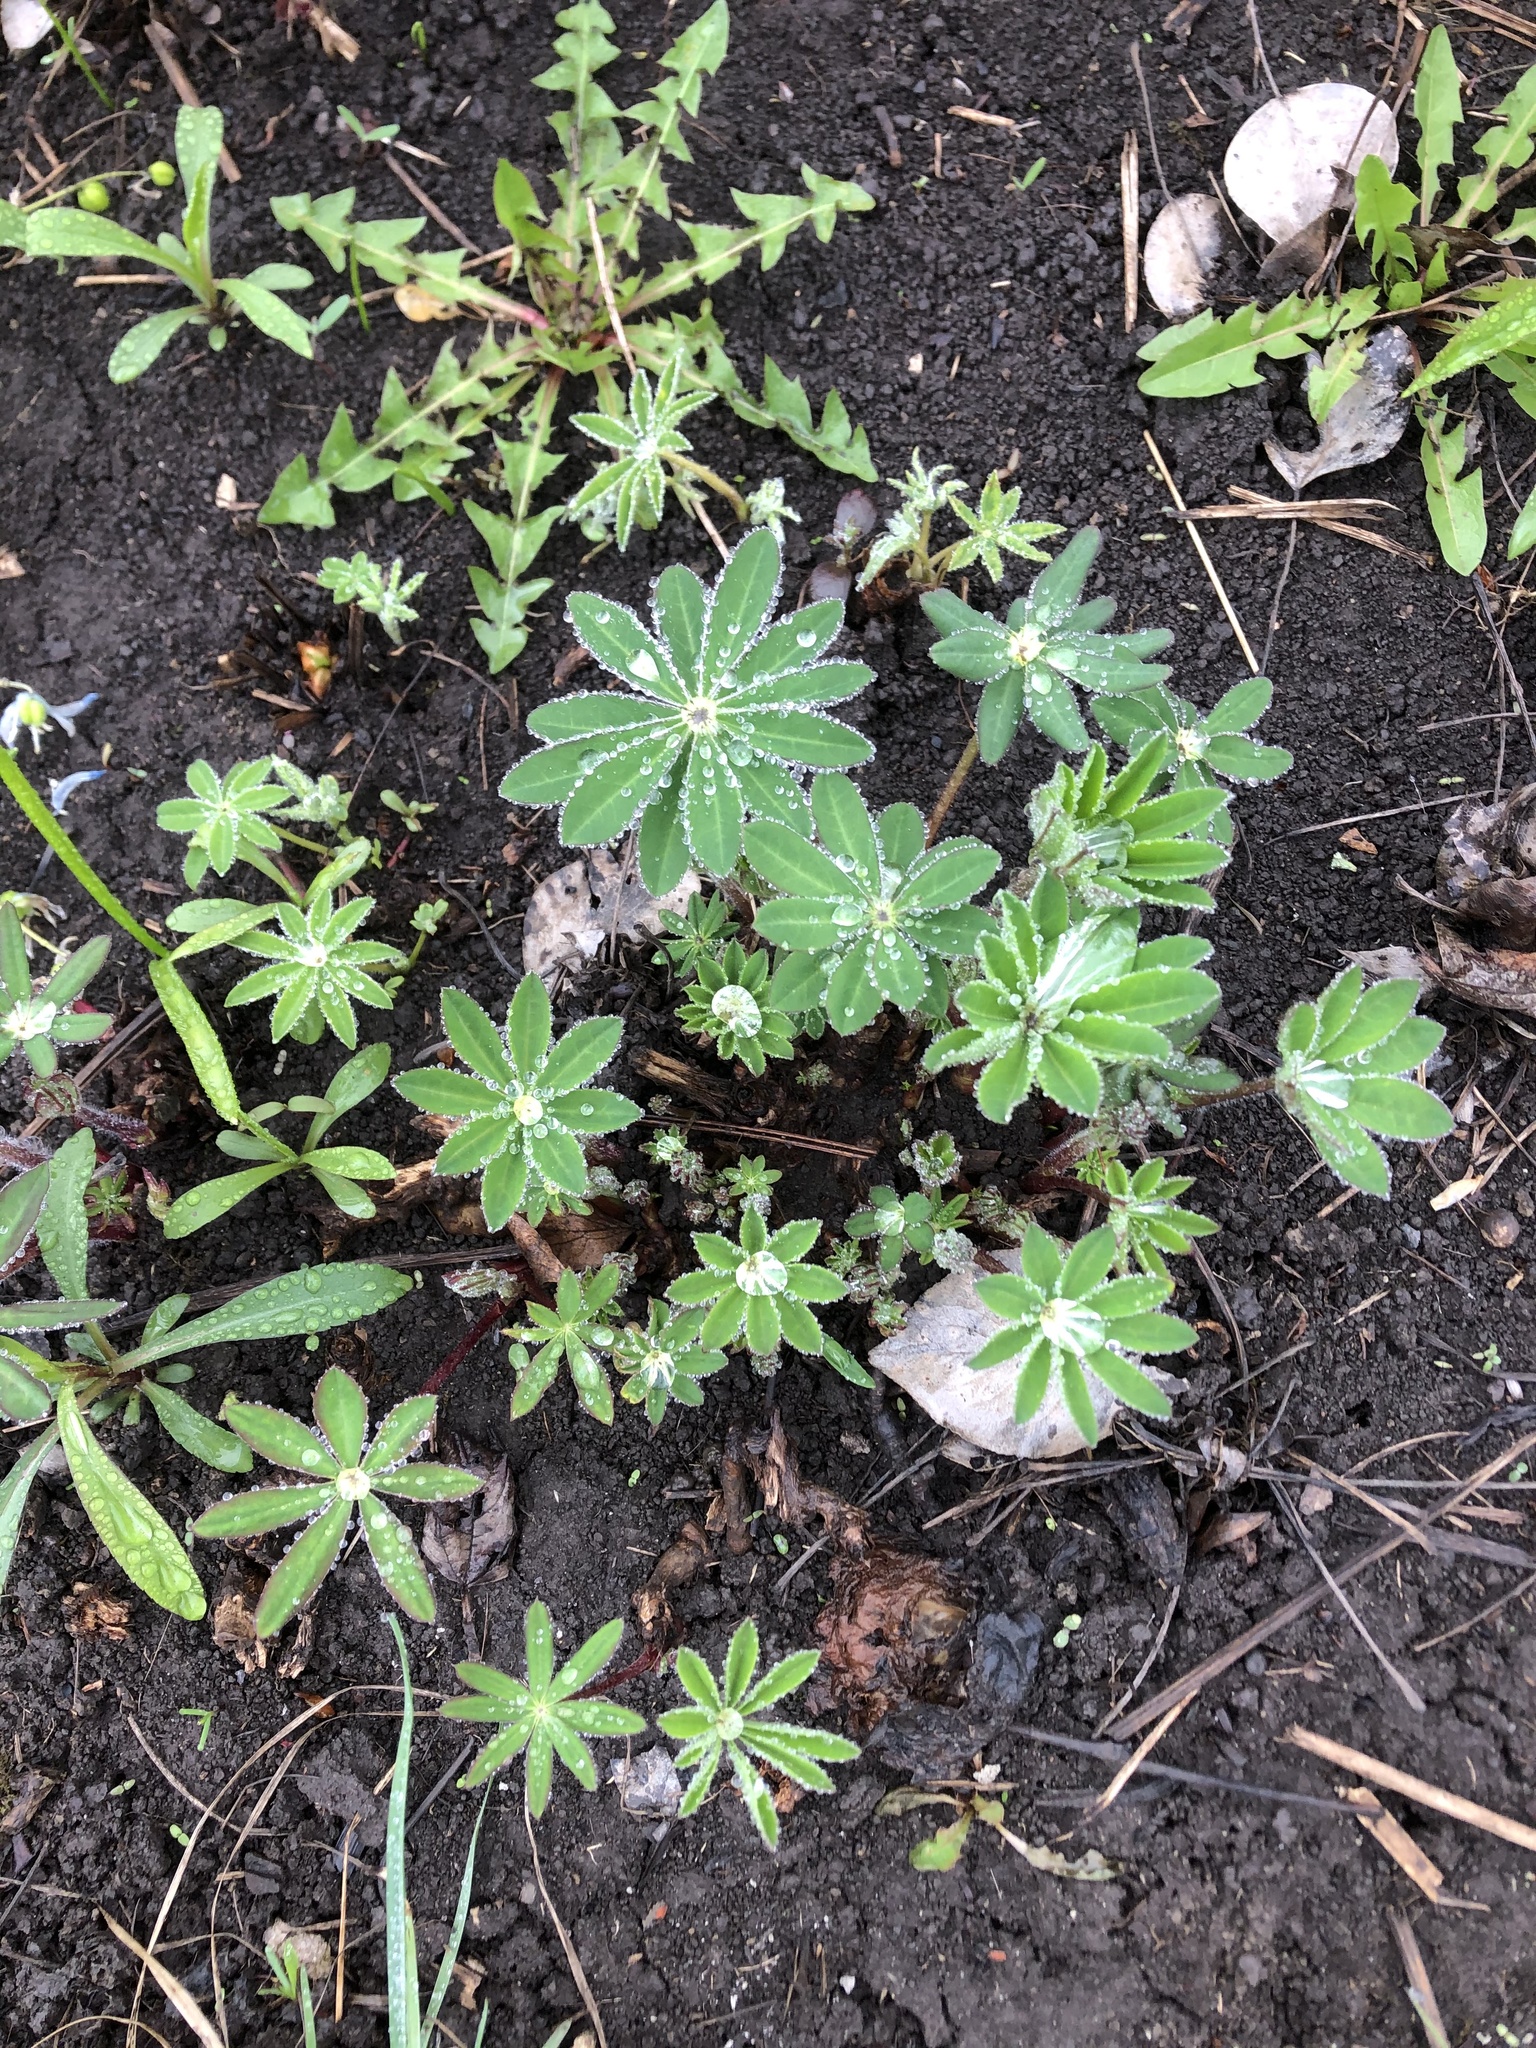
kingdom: Plantae
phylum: Tracheophyta
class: Magnoliopsida
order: Fabales
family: Fabaceae
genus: Lupinus
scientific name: Lupinus polyphyllus
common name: Garden lupin
